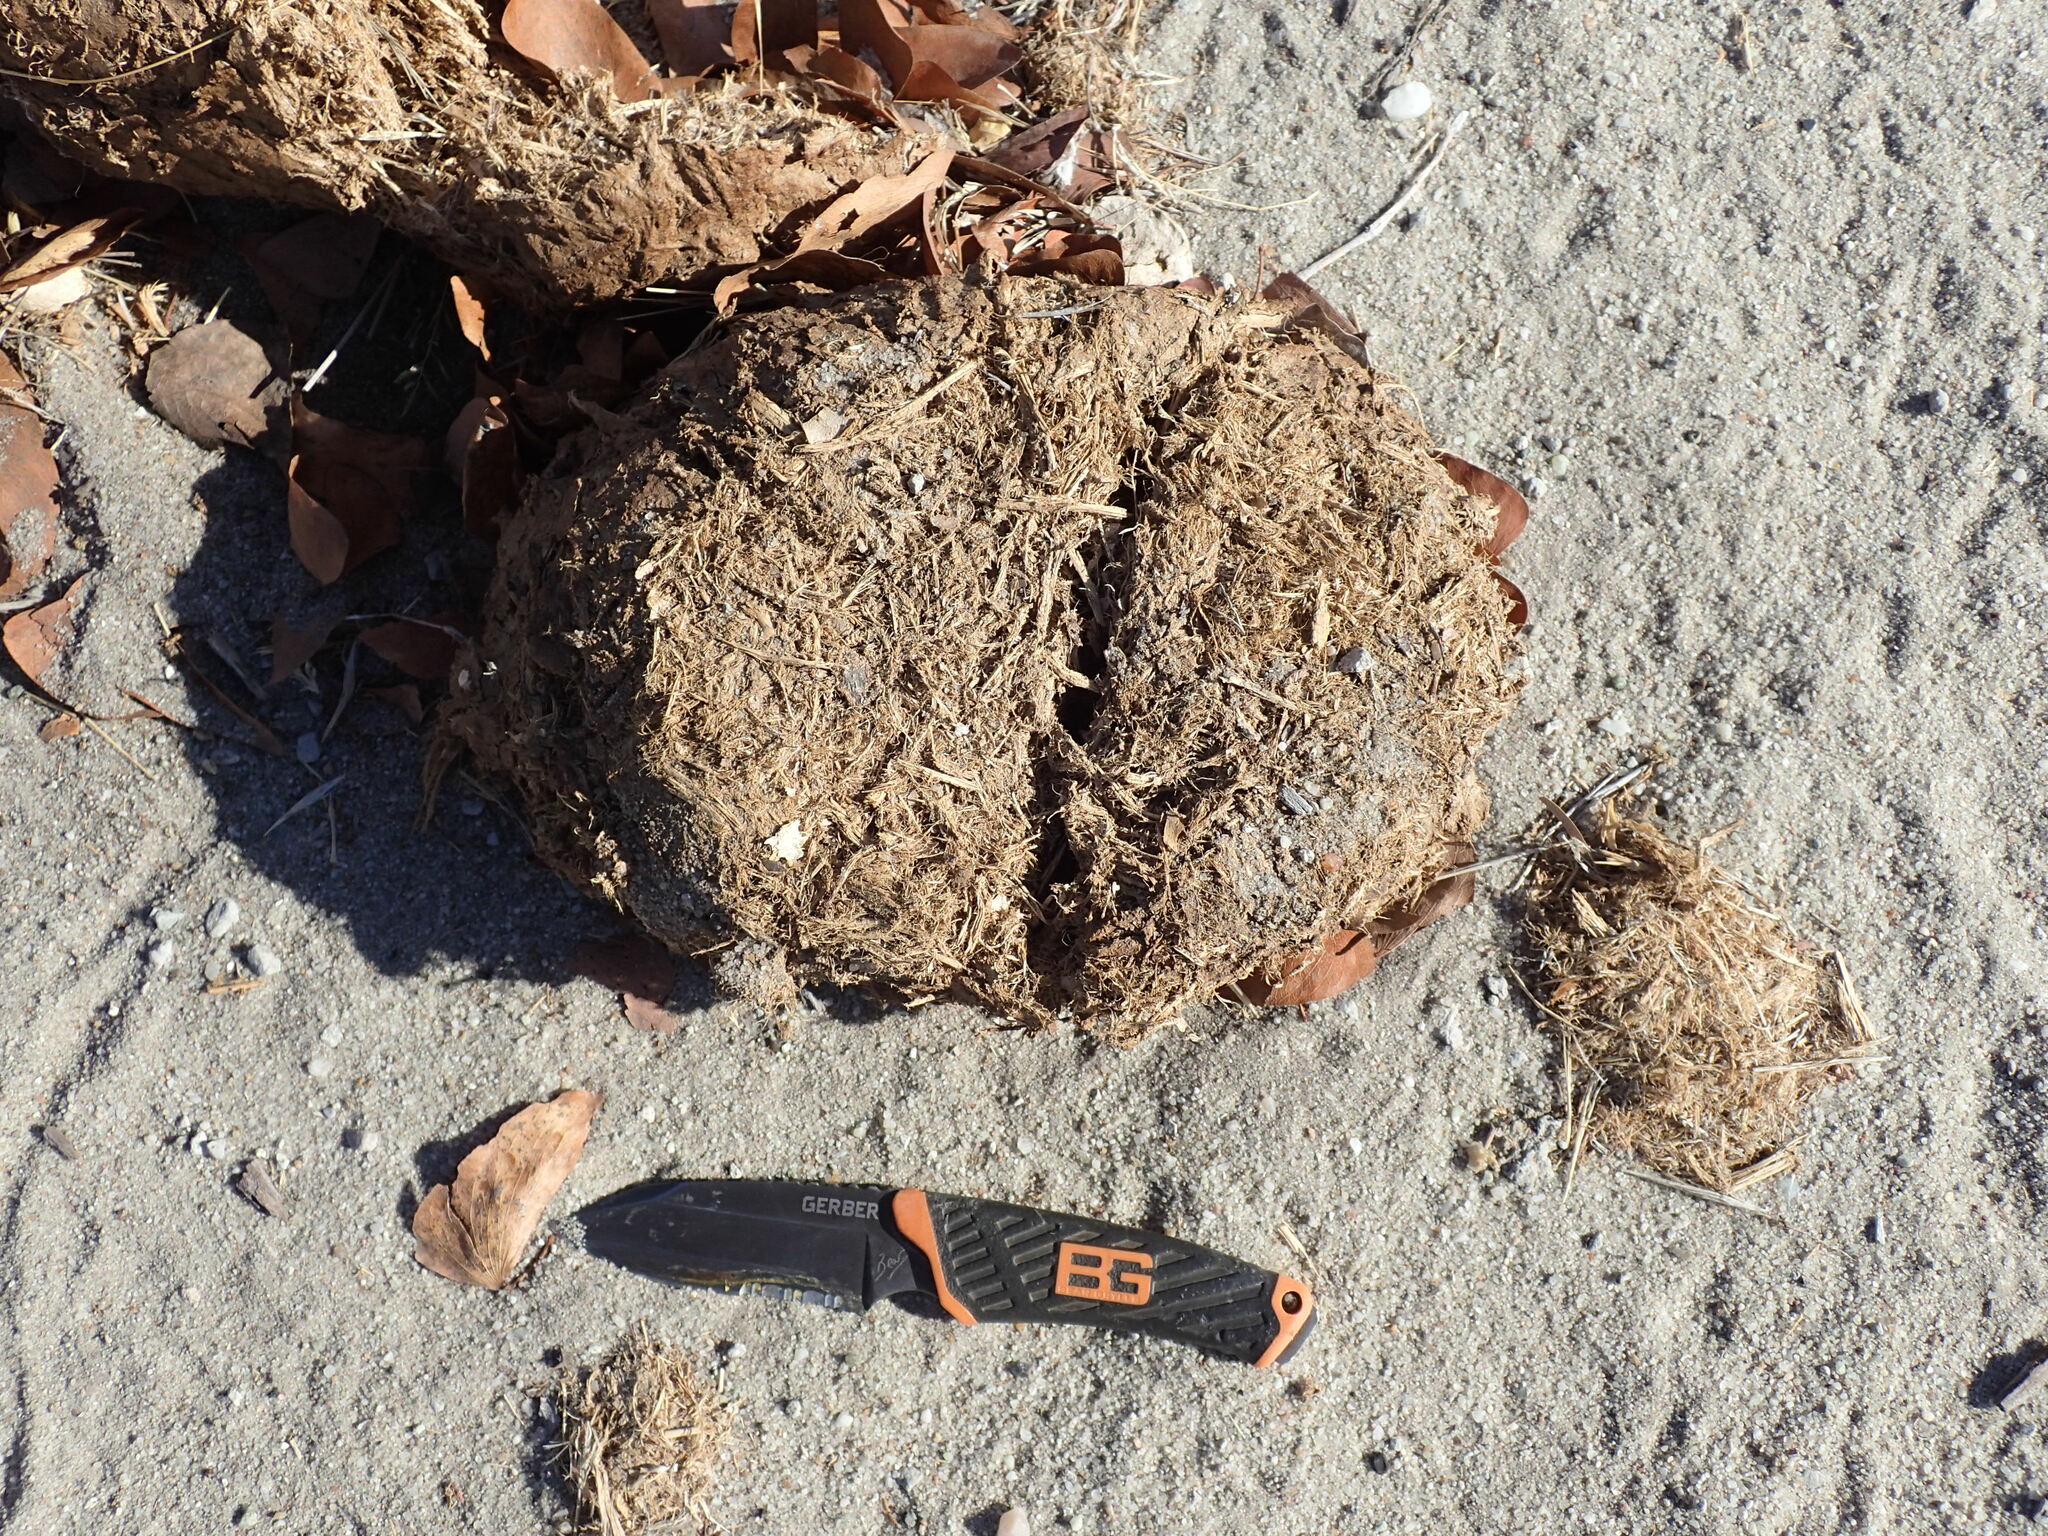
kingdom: Animalia
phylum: Chordata
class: Mammalia
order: Proboscidea
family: Elephantidae
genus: Loxodonta
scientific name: Loxodonta africana
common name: African elephant
